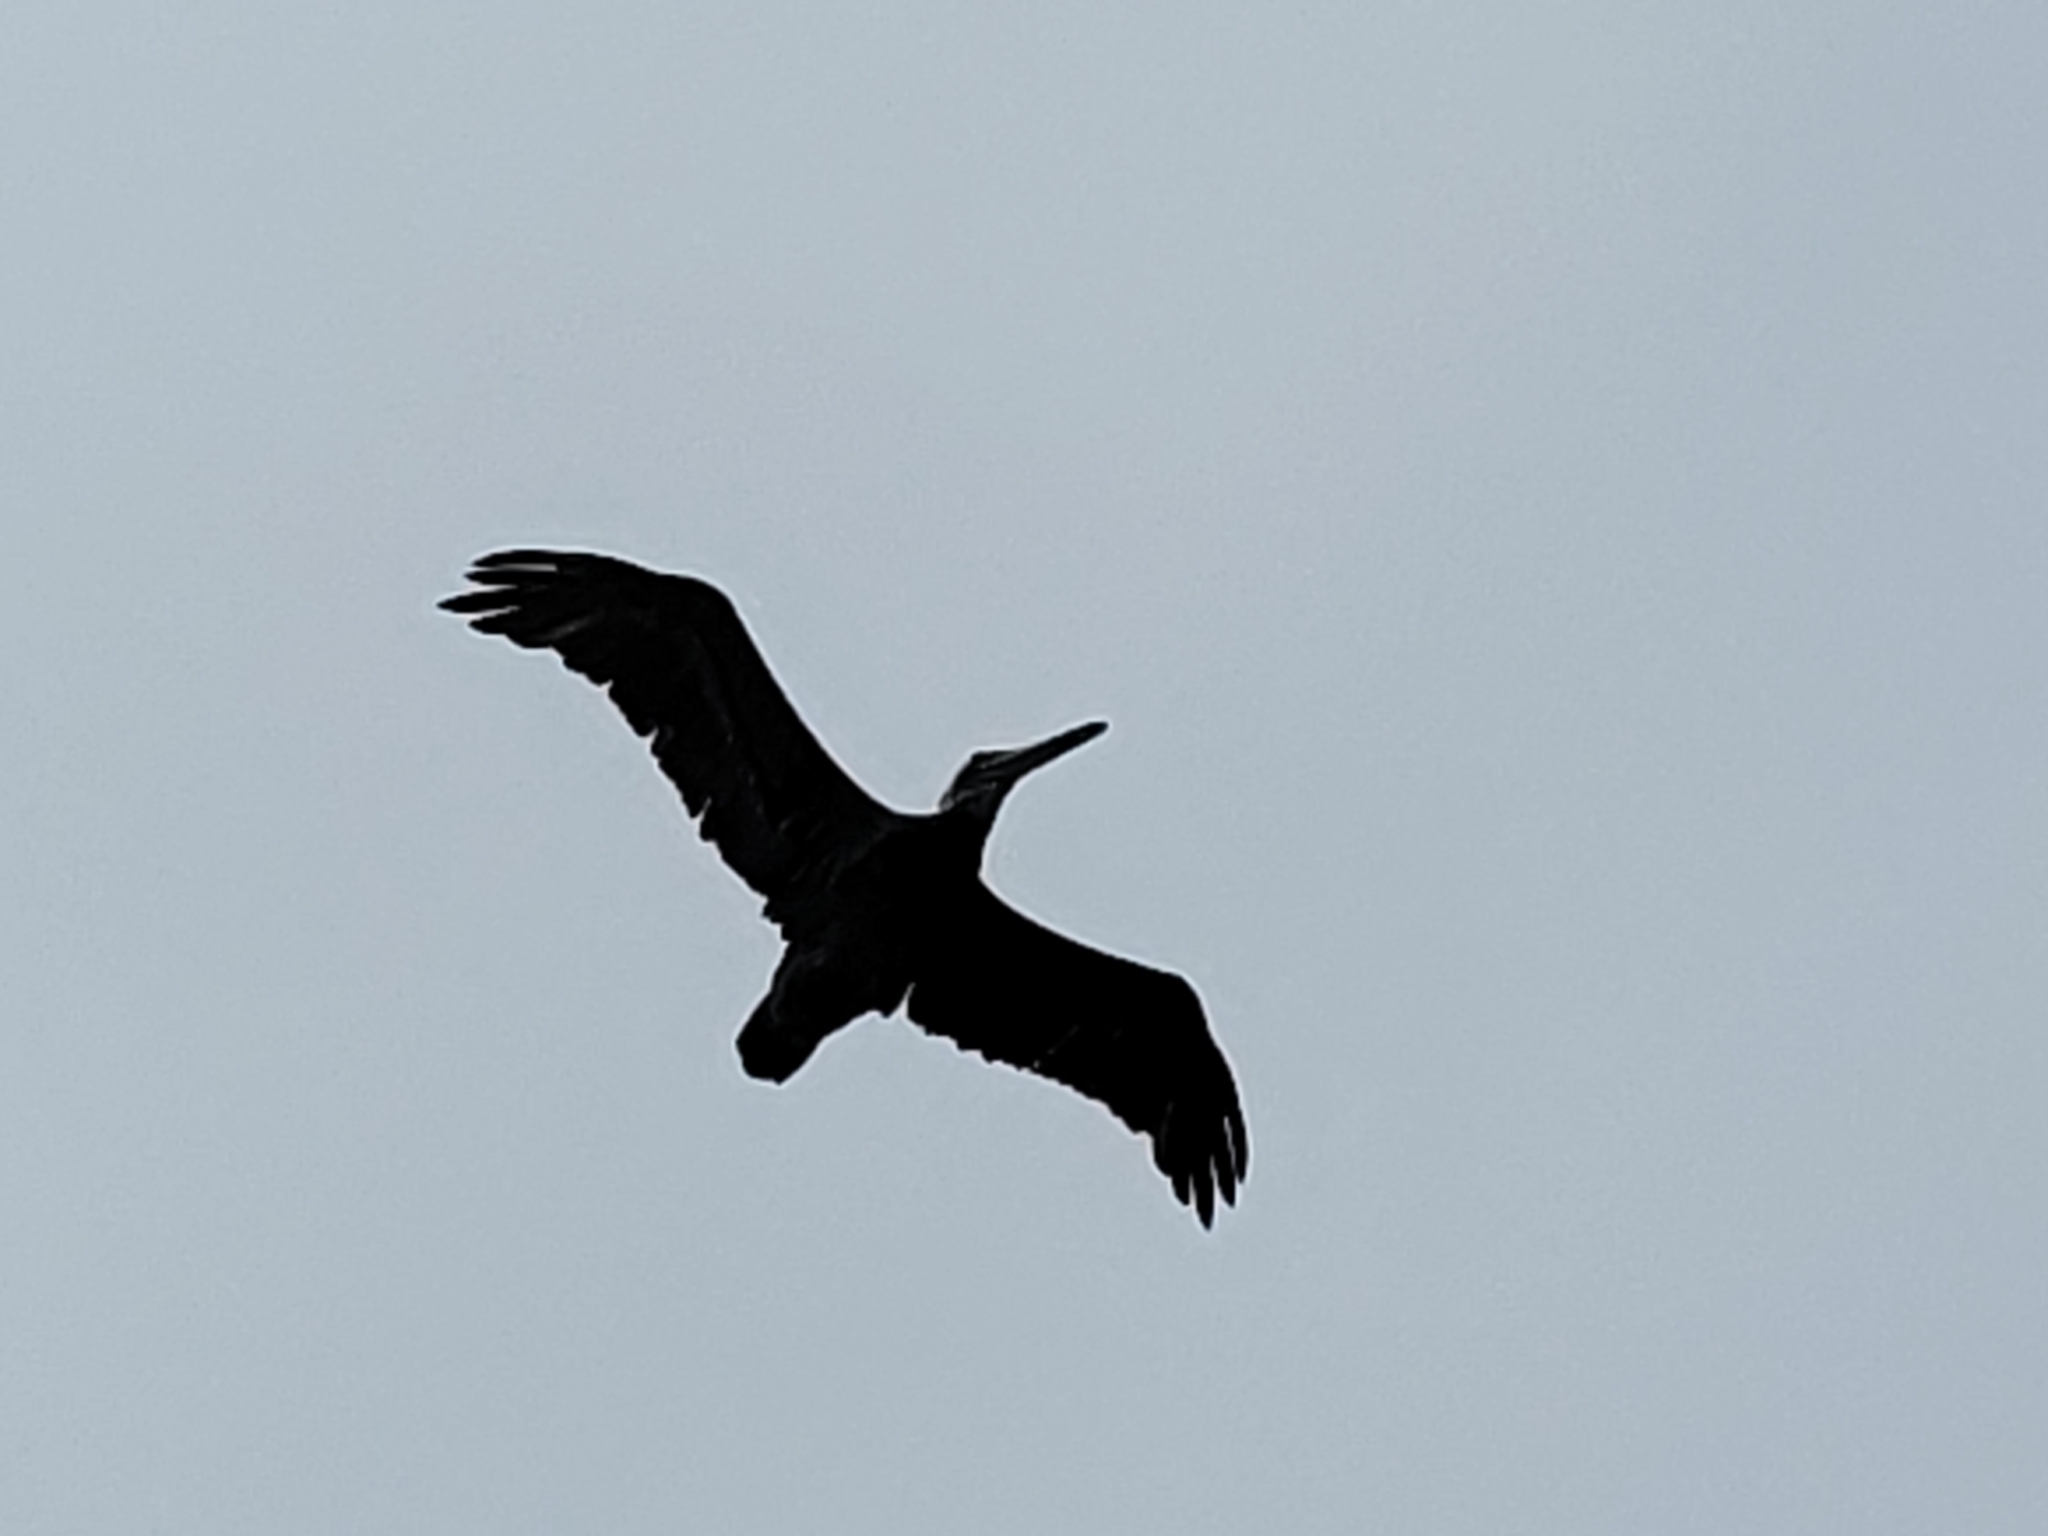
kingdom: Animalia
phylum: Chordata
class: Aves
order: Pelecaniformes
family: Pelecanidae
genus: Pelecanus
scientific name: Pelecanus occidentalis
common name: Brown pelican
